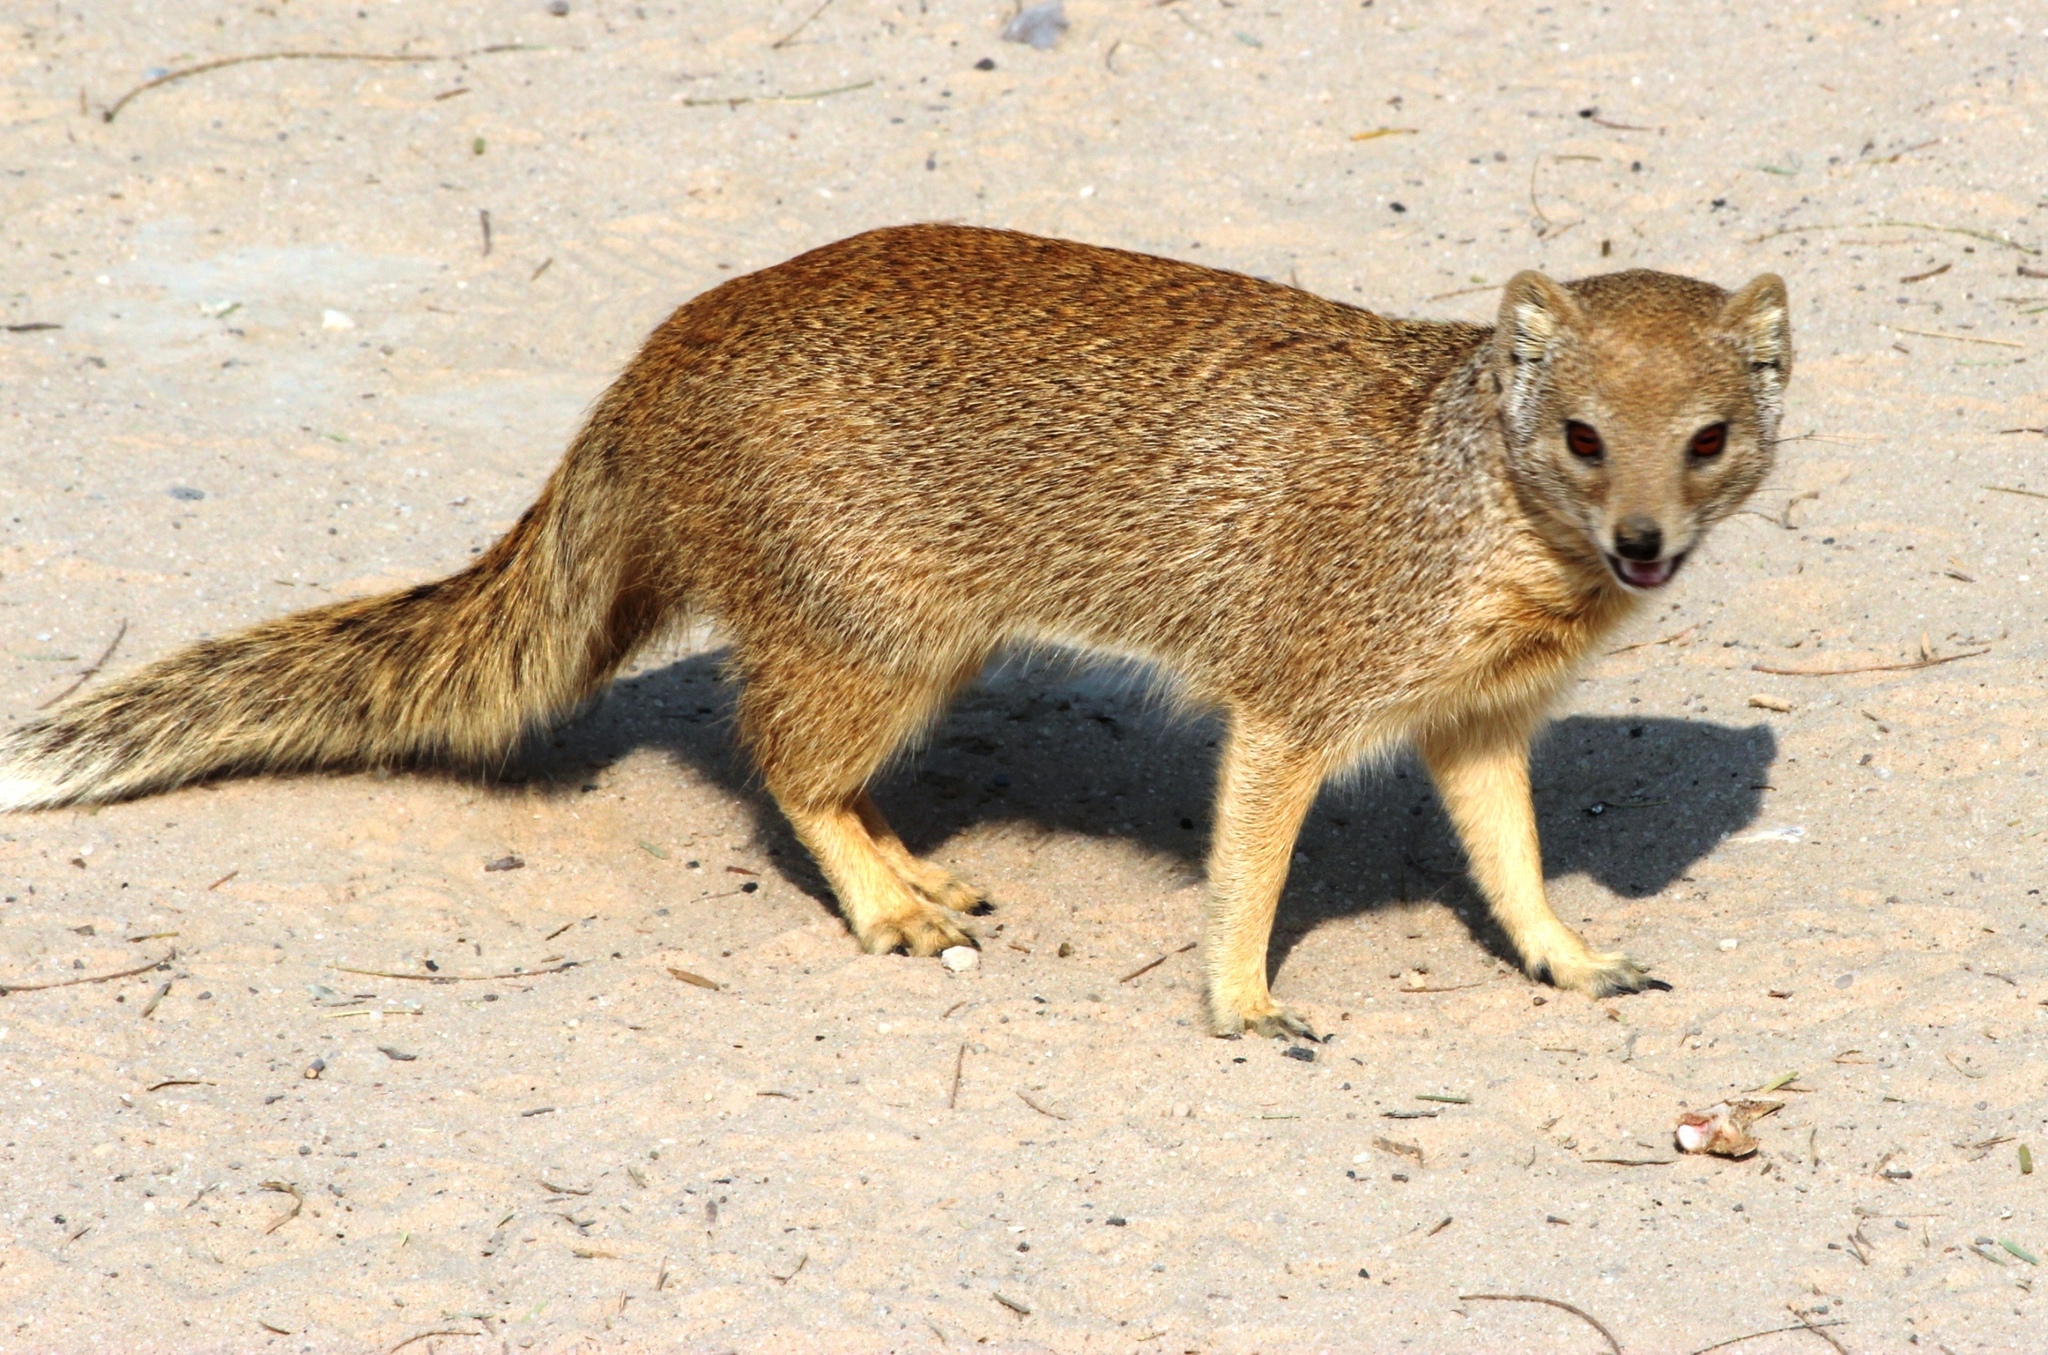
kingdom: Animalia
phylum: Chordata
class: Mammalia
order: Carnivora
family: Herpestidae
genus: Cynictis
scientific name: Cynictis penicillata
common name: Yellow mongoose
